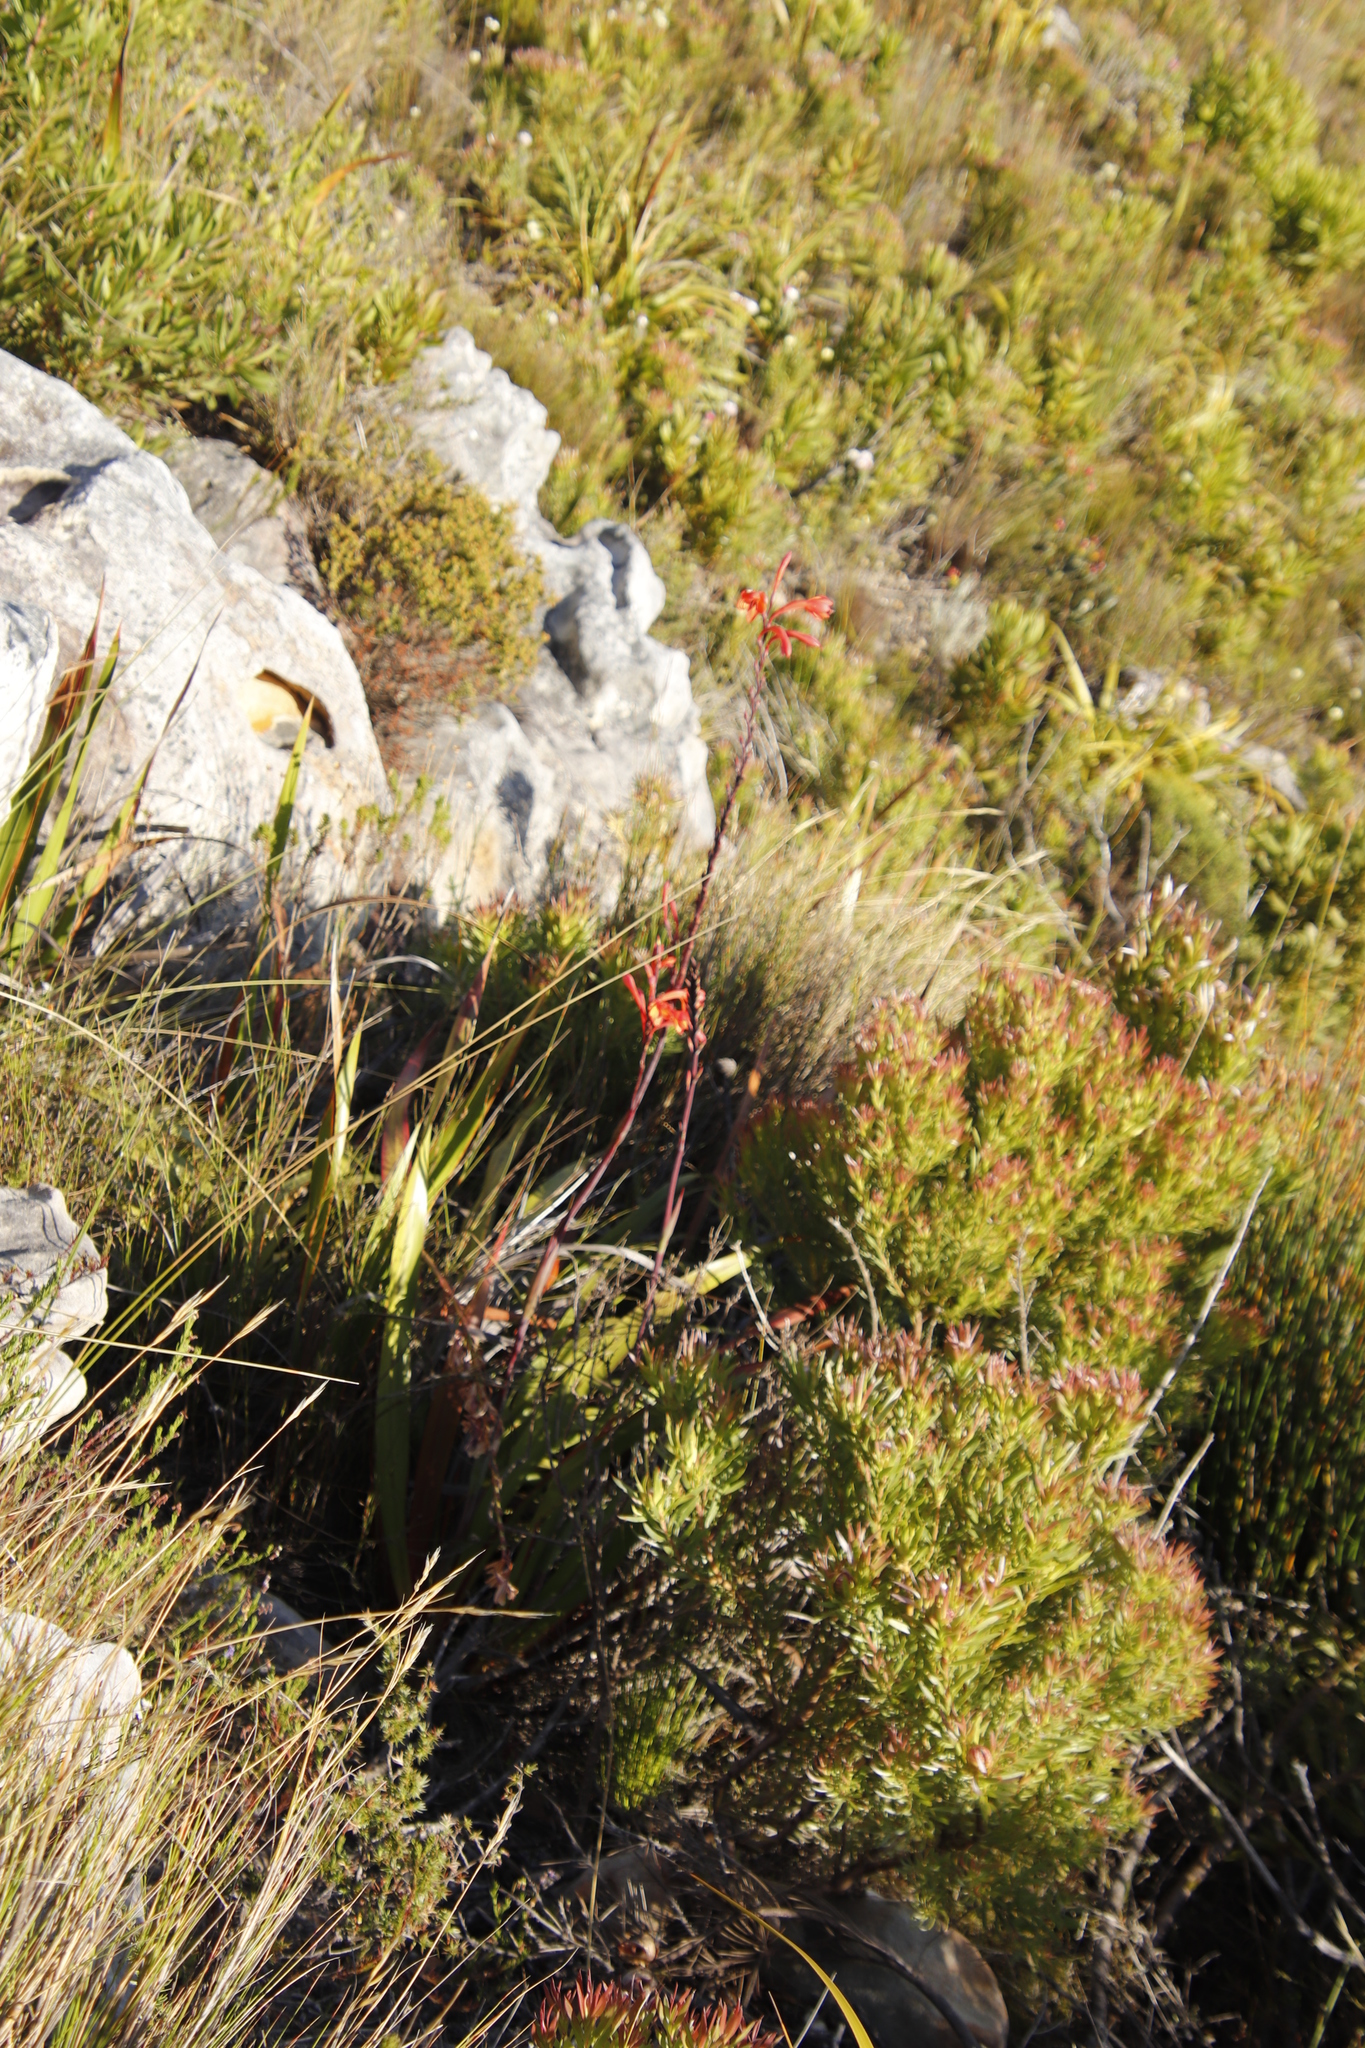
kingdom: Plantae
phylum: Tracheophyta
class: Liliopsida
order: Asparagales
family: Iridaceae
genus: Watsonia
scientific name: Watsonia tabularis
